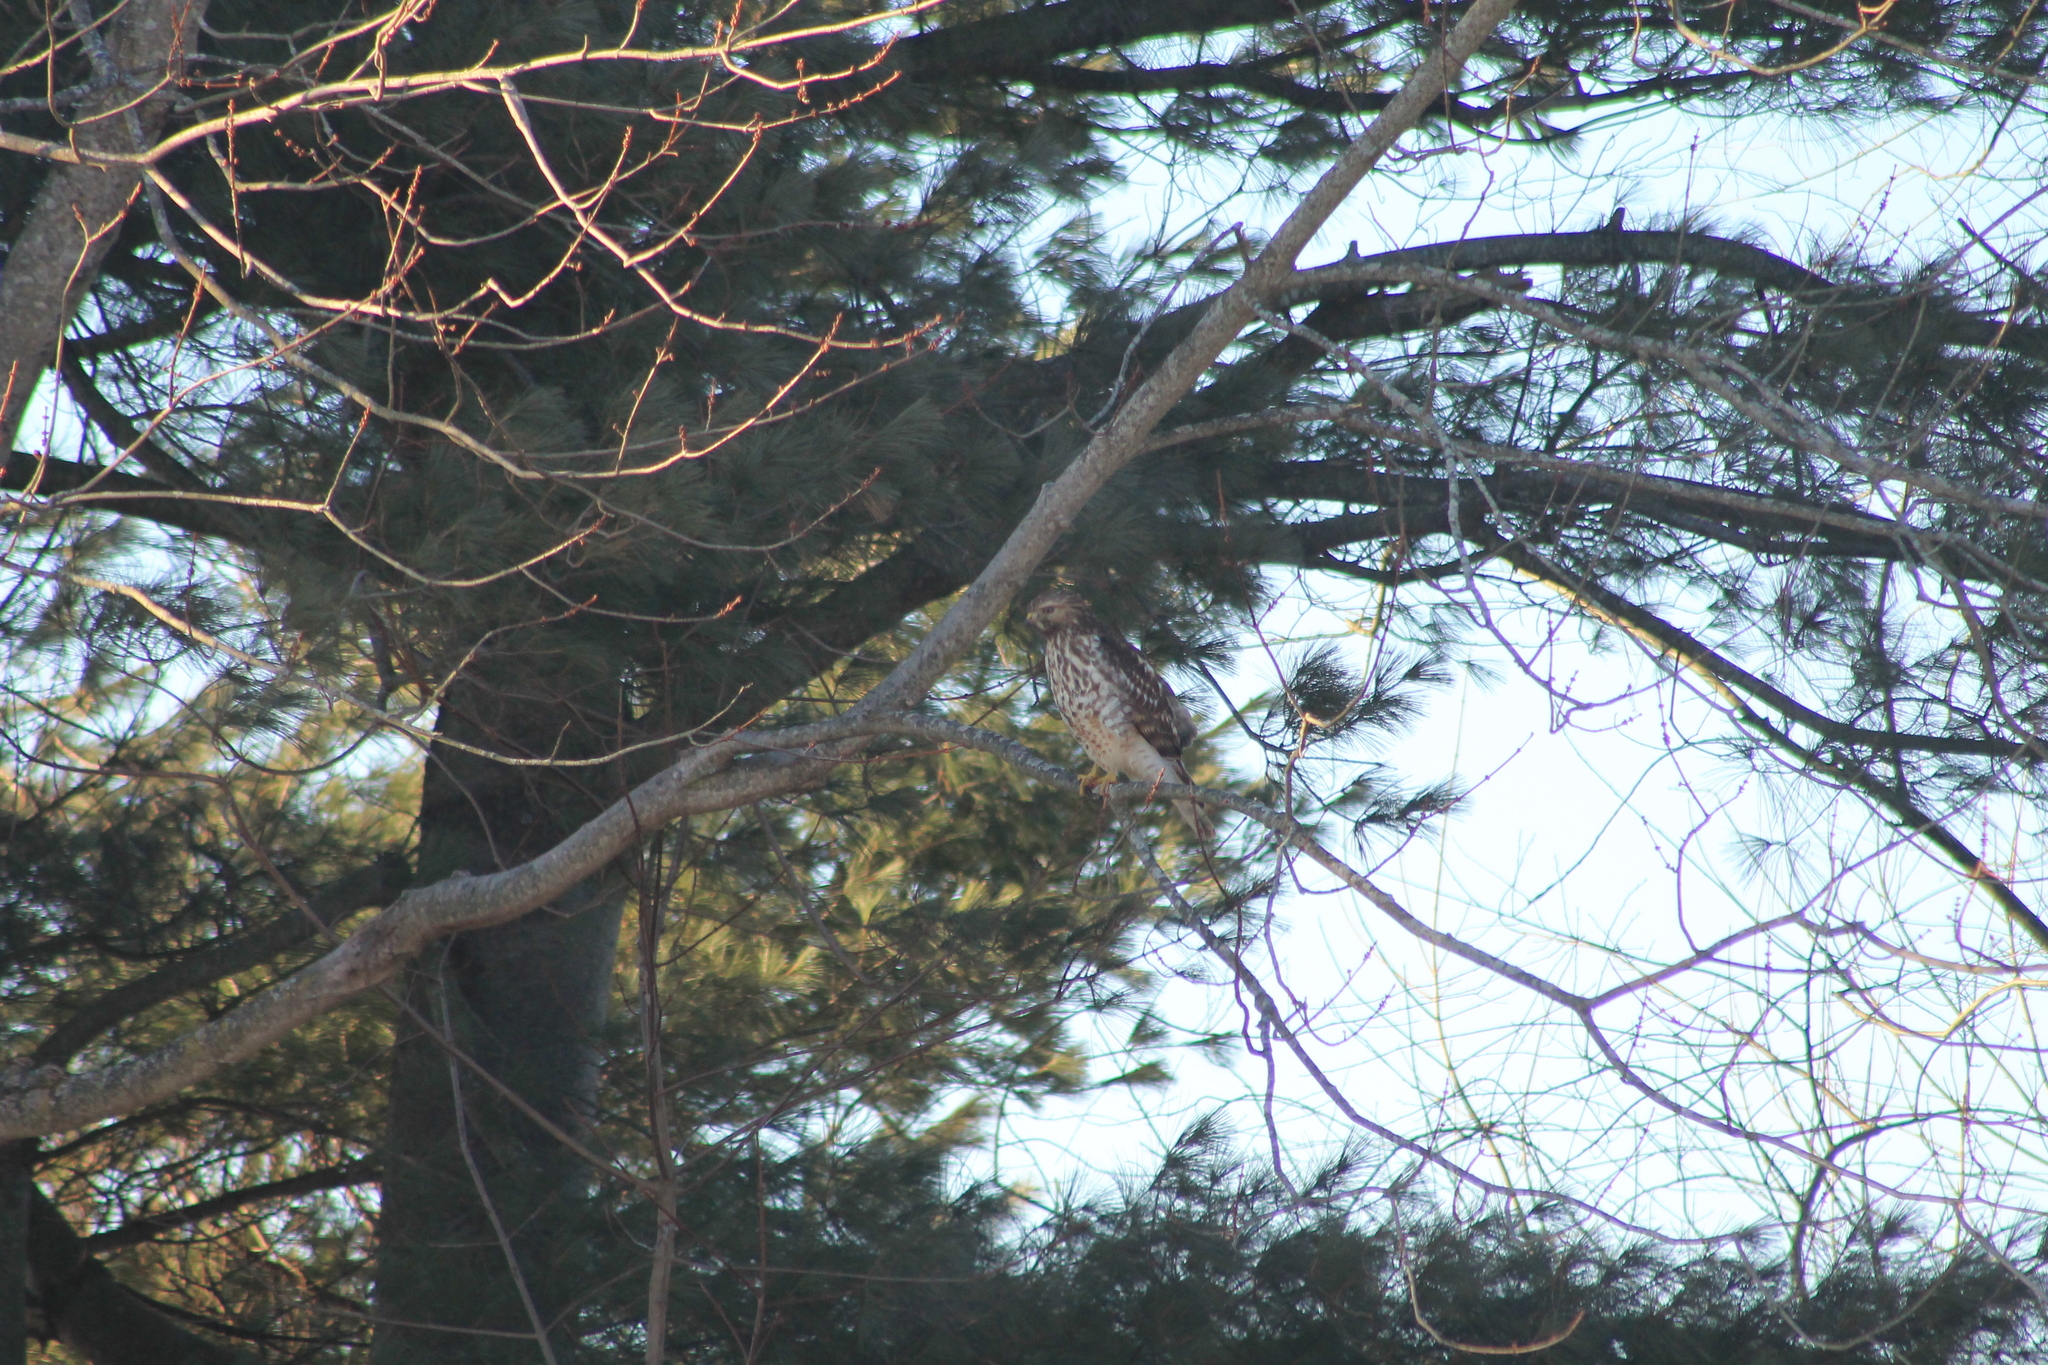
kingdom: Animalia
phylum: Chordata
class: Aves
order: Accipitriformes
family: Accipitridae
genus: Buteo
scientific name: Buteo lineatus
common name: Red-shouldered hawk
